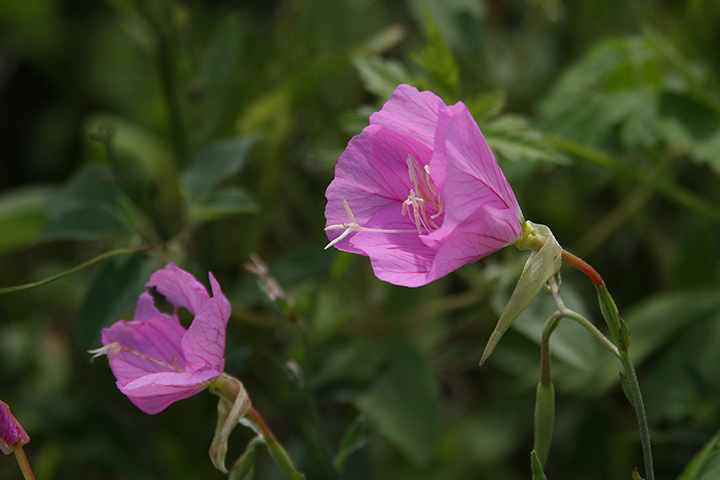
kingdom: Plantae
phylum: Tracheophyta
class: Magnoliopsida
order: Myrtales
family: Onagraceae
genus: Oenothera
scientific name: Oenothera speciosa
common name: White evening-primrose
